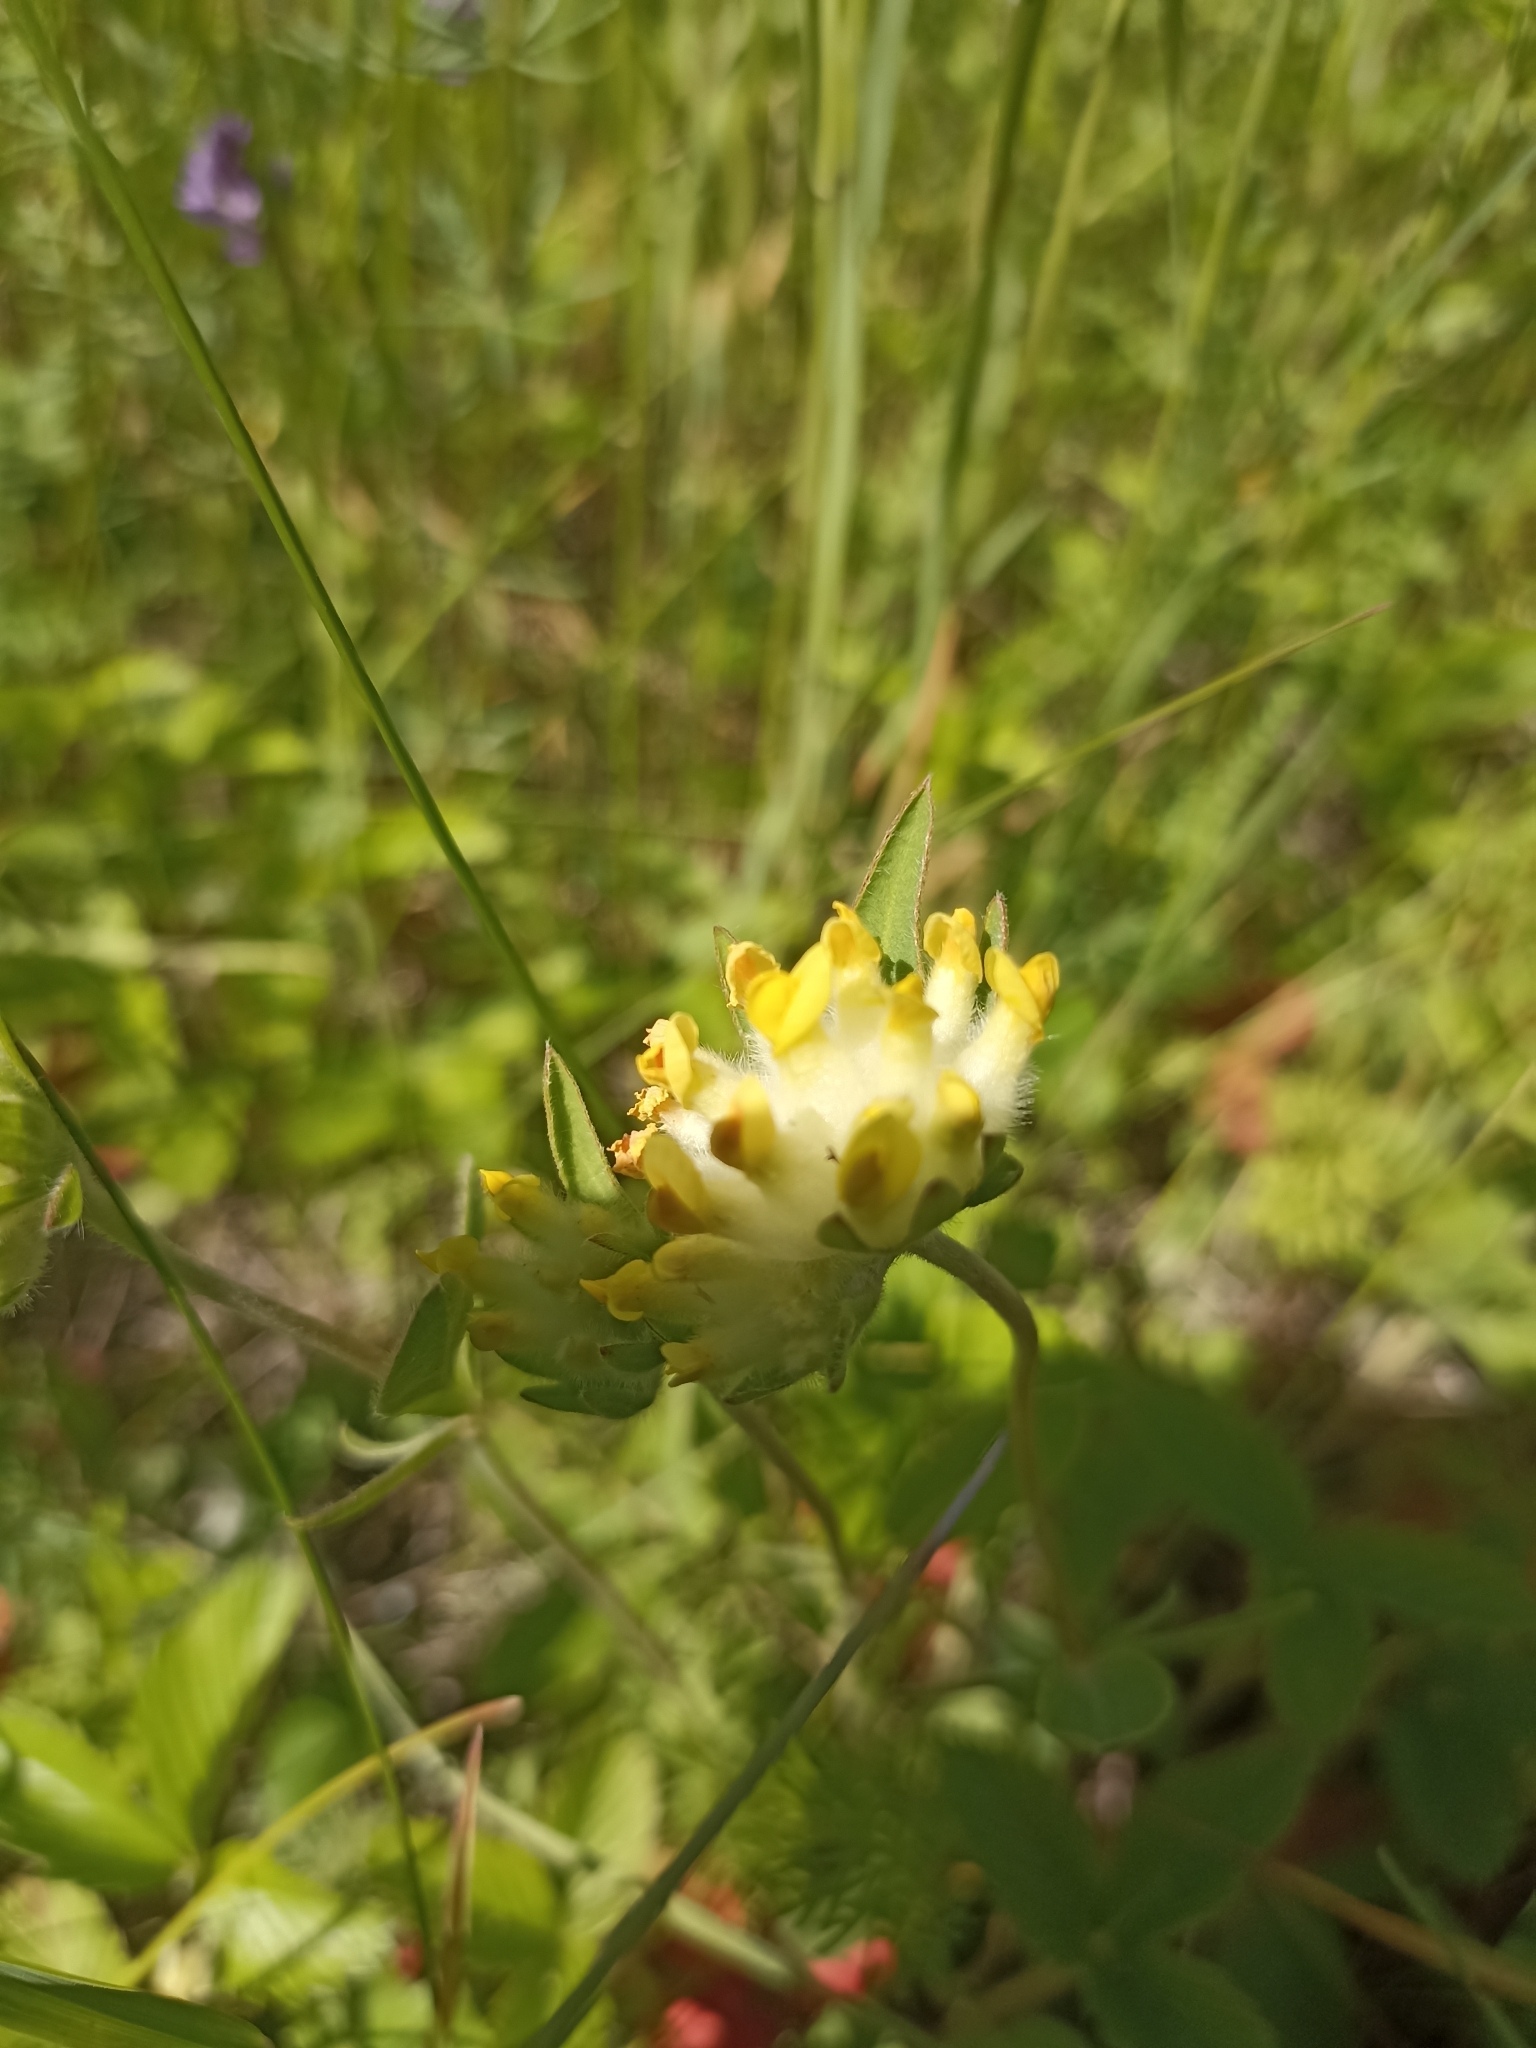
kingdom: Plantae
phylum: Tracheophyta
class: Magnoliopsida
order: Fabales
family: Fabaceae
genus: Anthyllis
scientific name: Anthyllis vulneraria
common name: Kidney vetch
